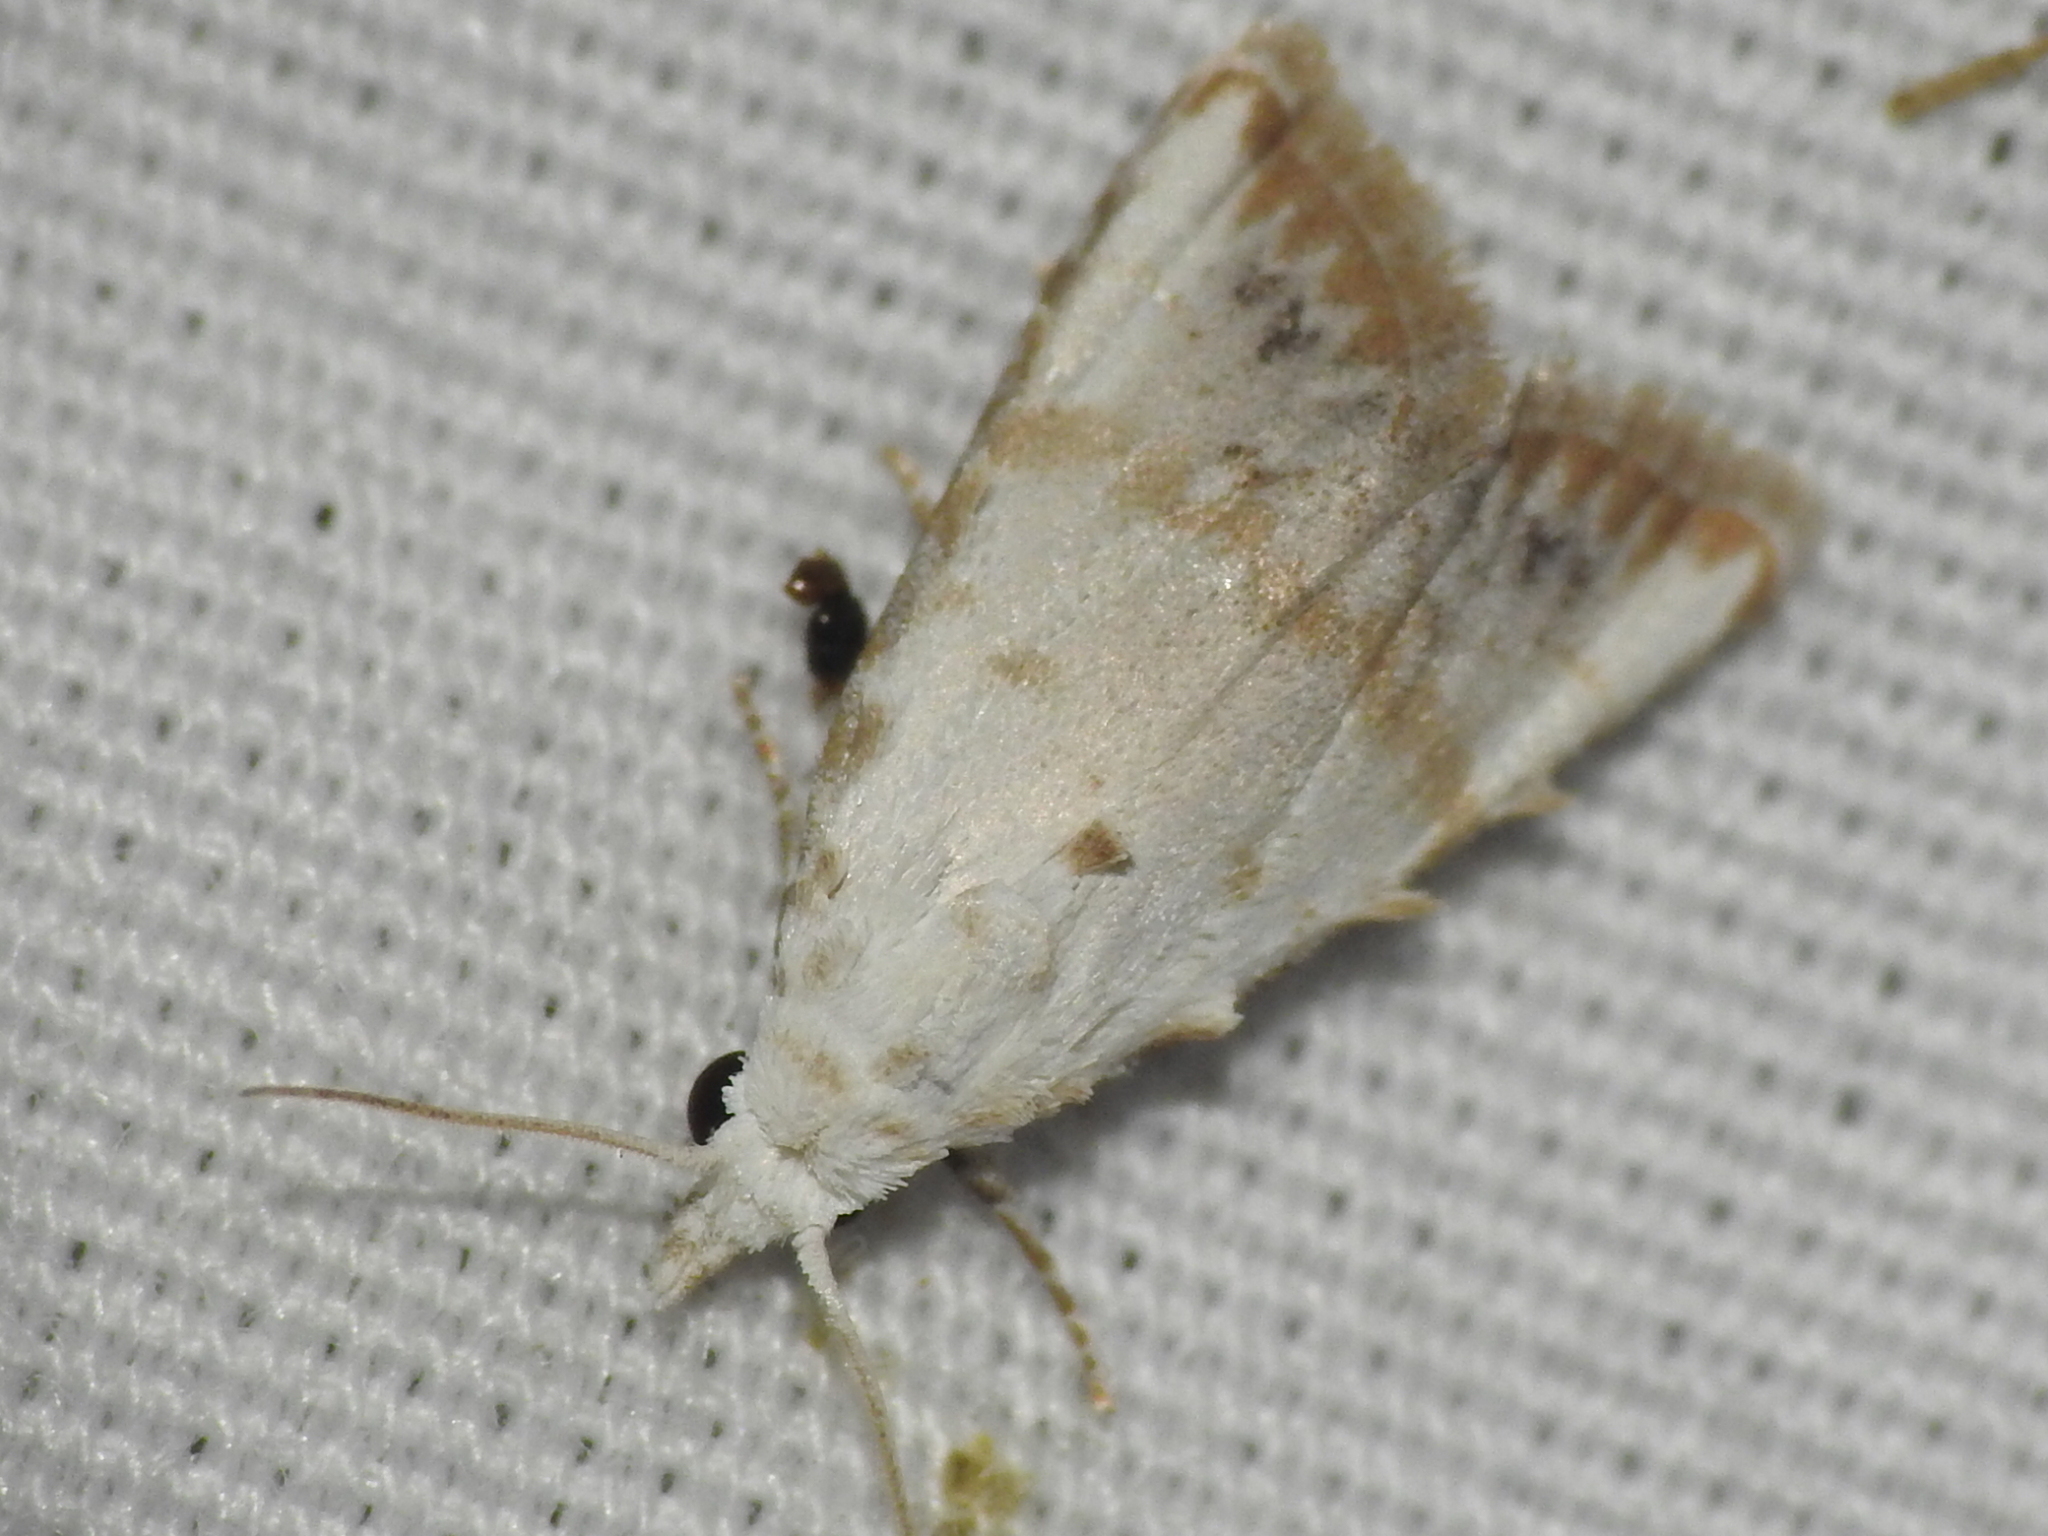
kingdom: Animalia
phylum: Arthropoda
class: Insecta
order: Lepidoptera
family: Nolidae
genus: Nola
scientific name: Nola cereella
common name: Sorghum webworm moth
